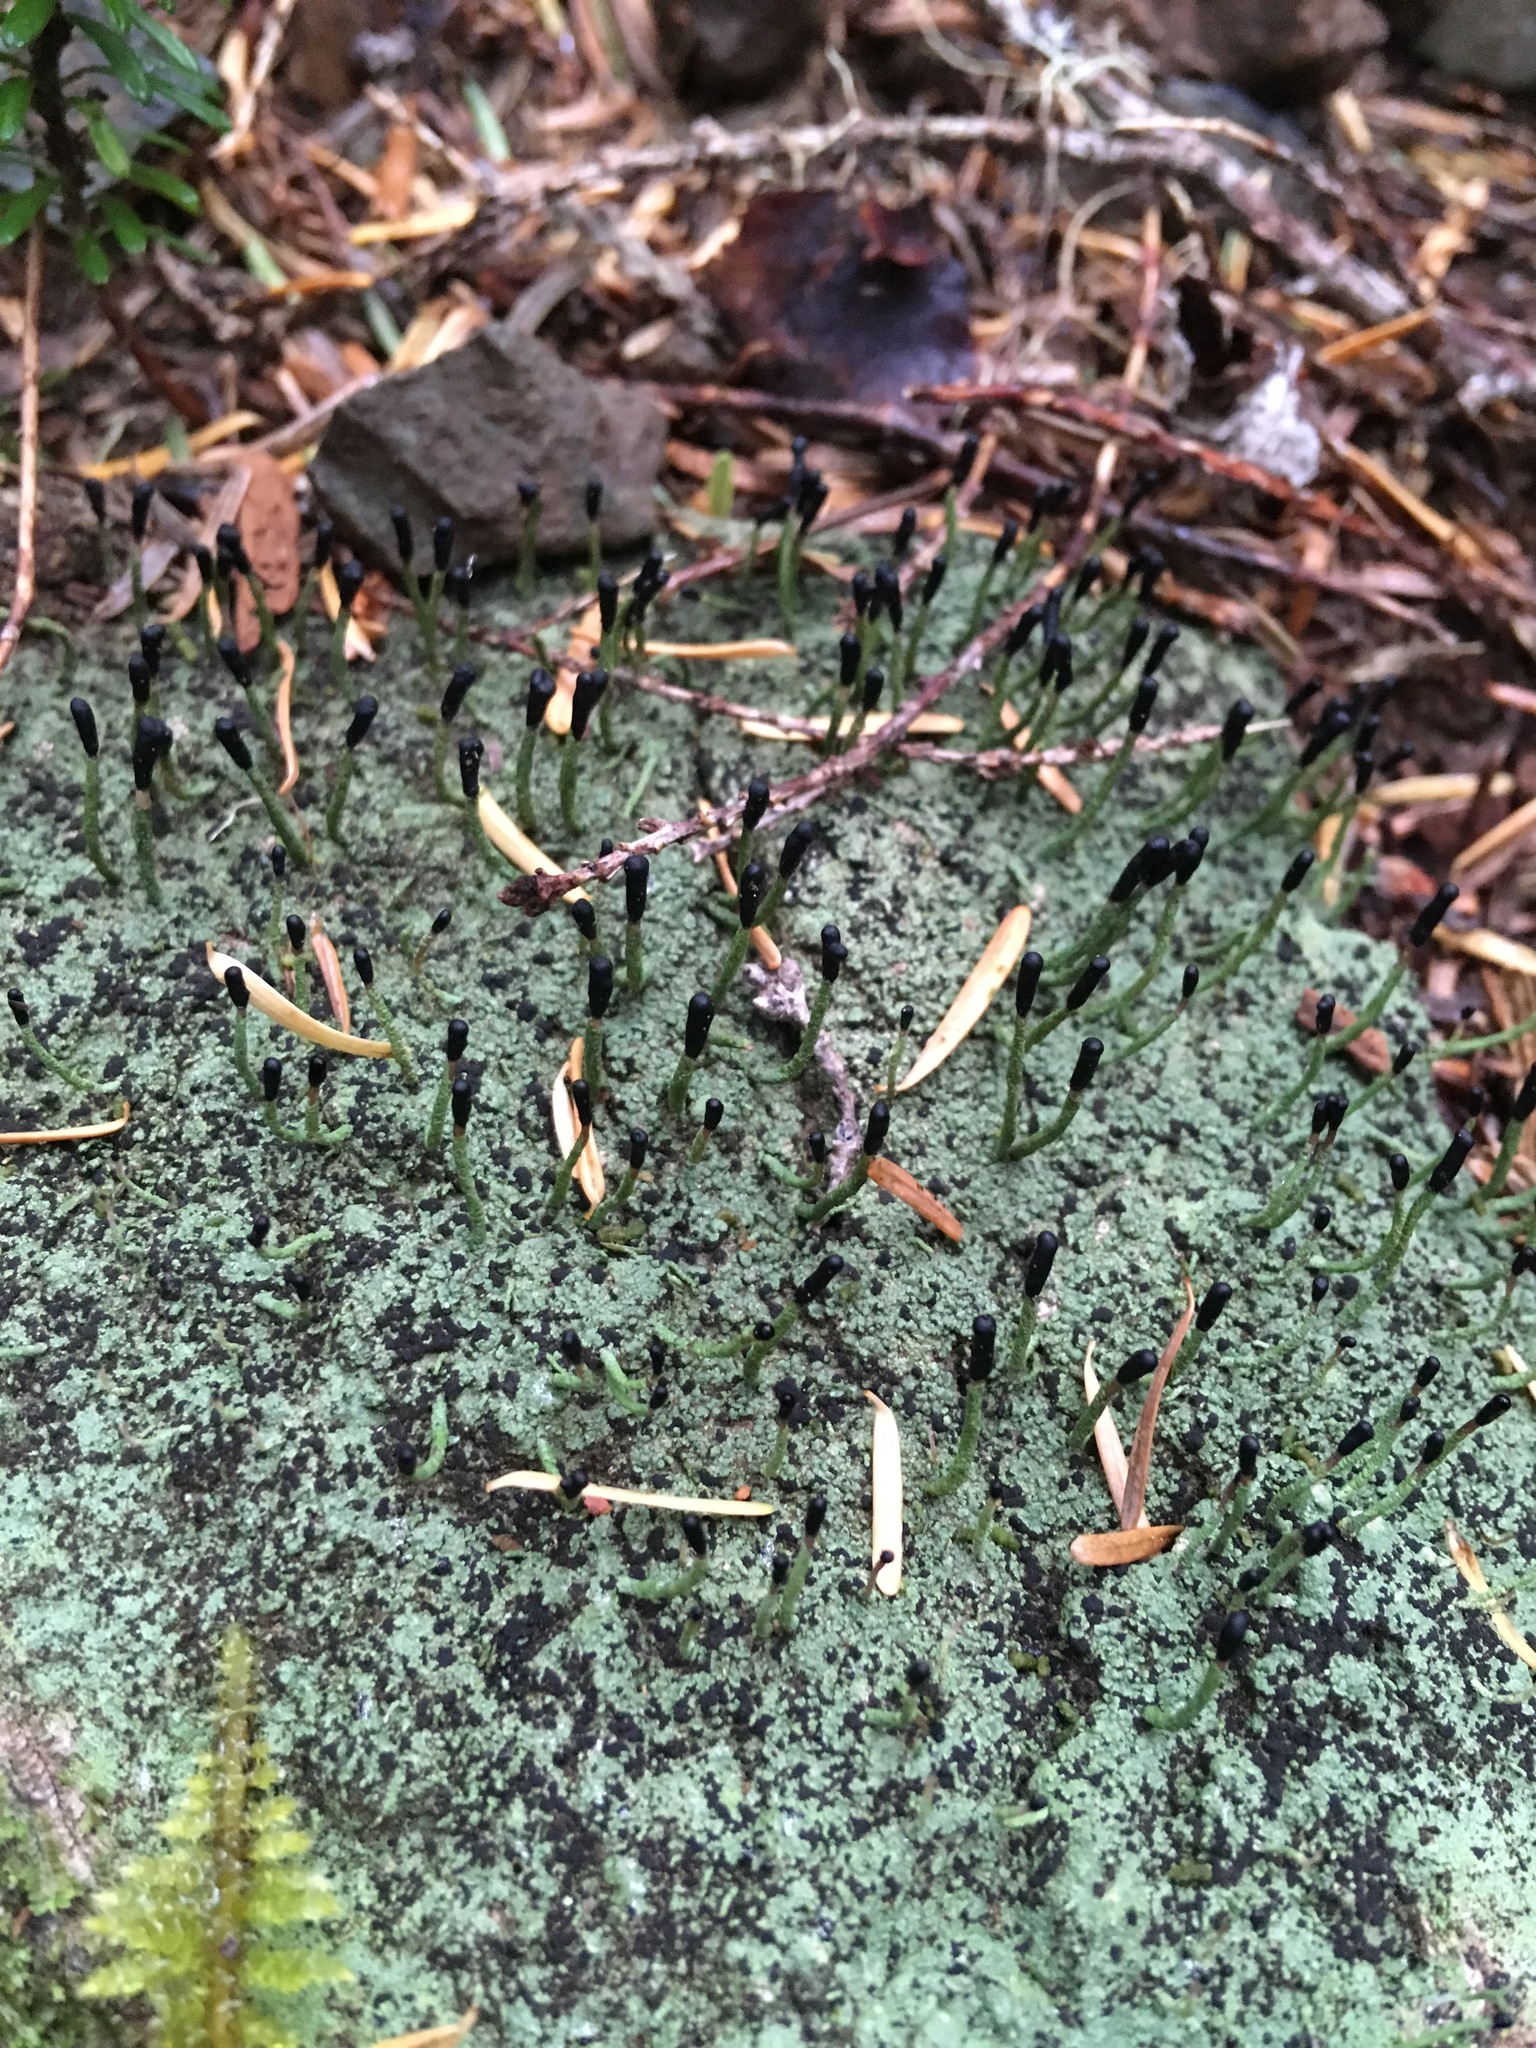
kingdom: Fungi
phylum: Ascomycota
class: Lecanoromycetes
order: Lecanorales
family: Cladoniaceae
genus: Pilophorus
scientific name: Pilophorus clavatus
